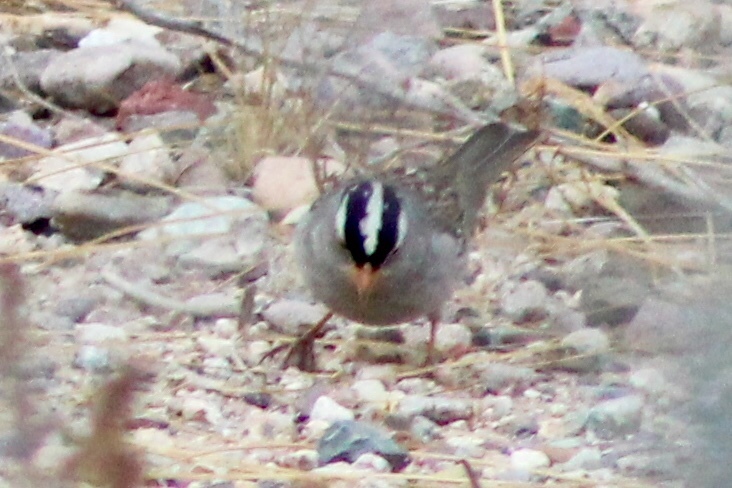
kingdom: Animalia
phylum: Chordata
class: Aves
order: Passeriformes
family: Passerellidae
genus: Zonotrichia
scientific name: Zonotrichia leucophrys
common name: White-crowned sparrow
